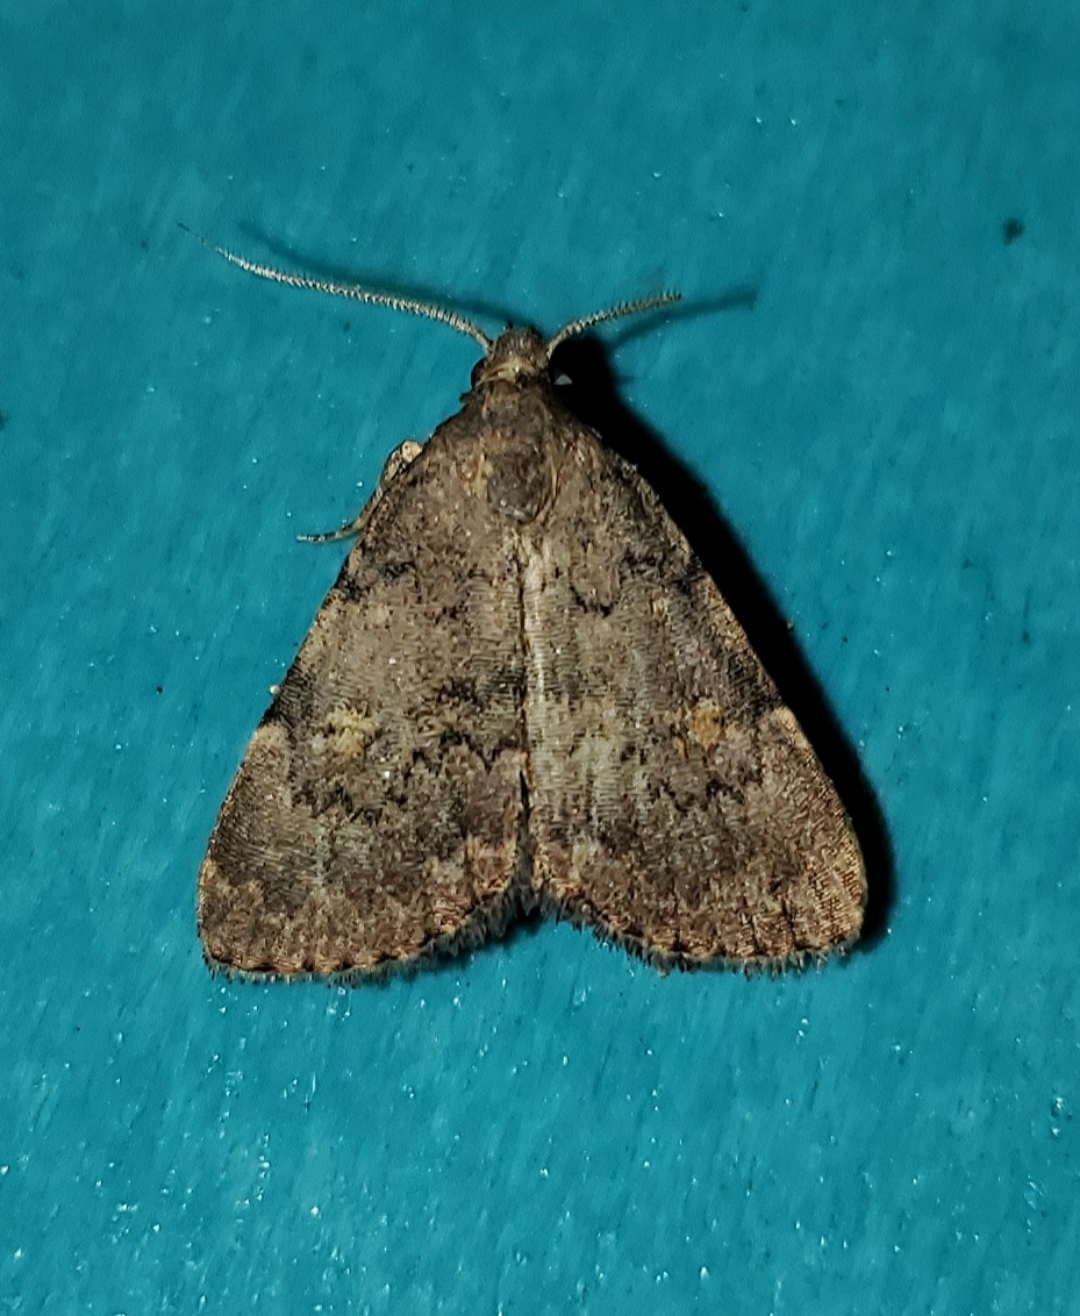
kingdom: Animalia
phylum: Arthropoda
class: Insecta
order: Lepidoptera
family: Erebidae
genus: Idia
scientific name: Idia aemula
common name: Common idia moth
